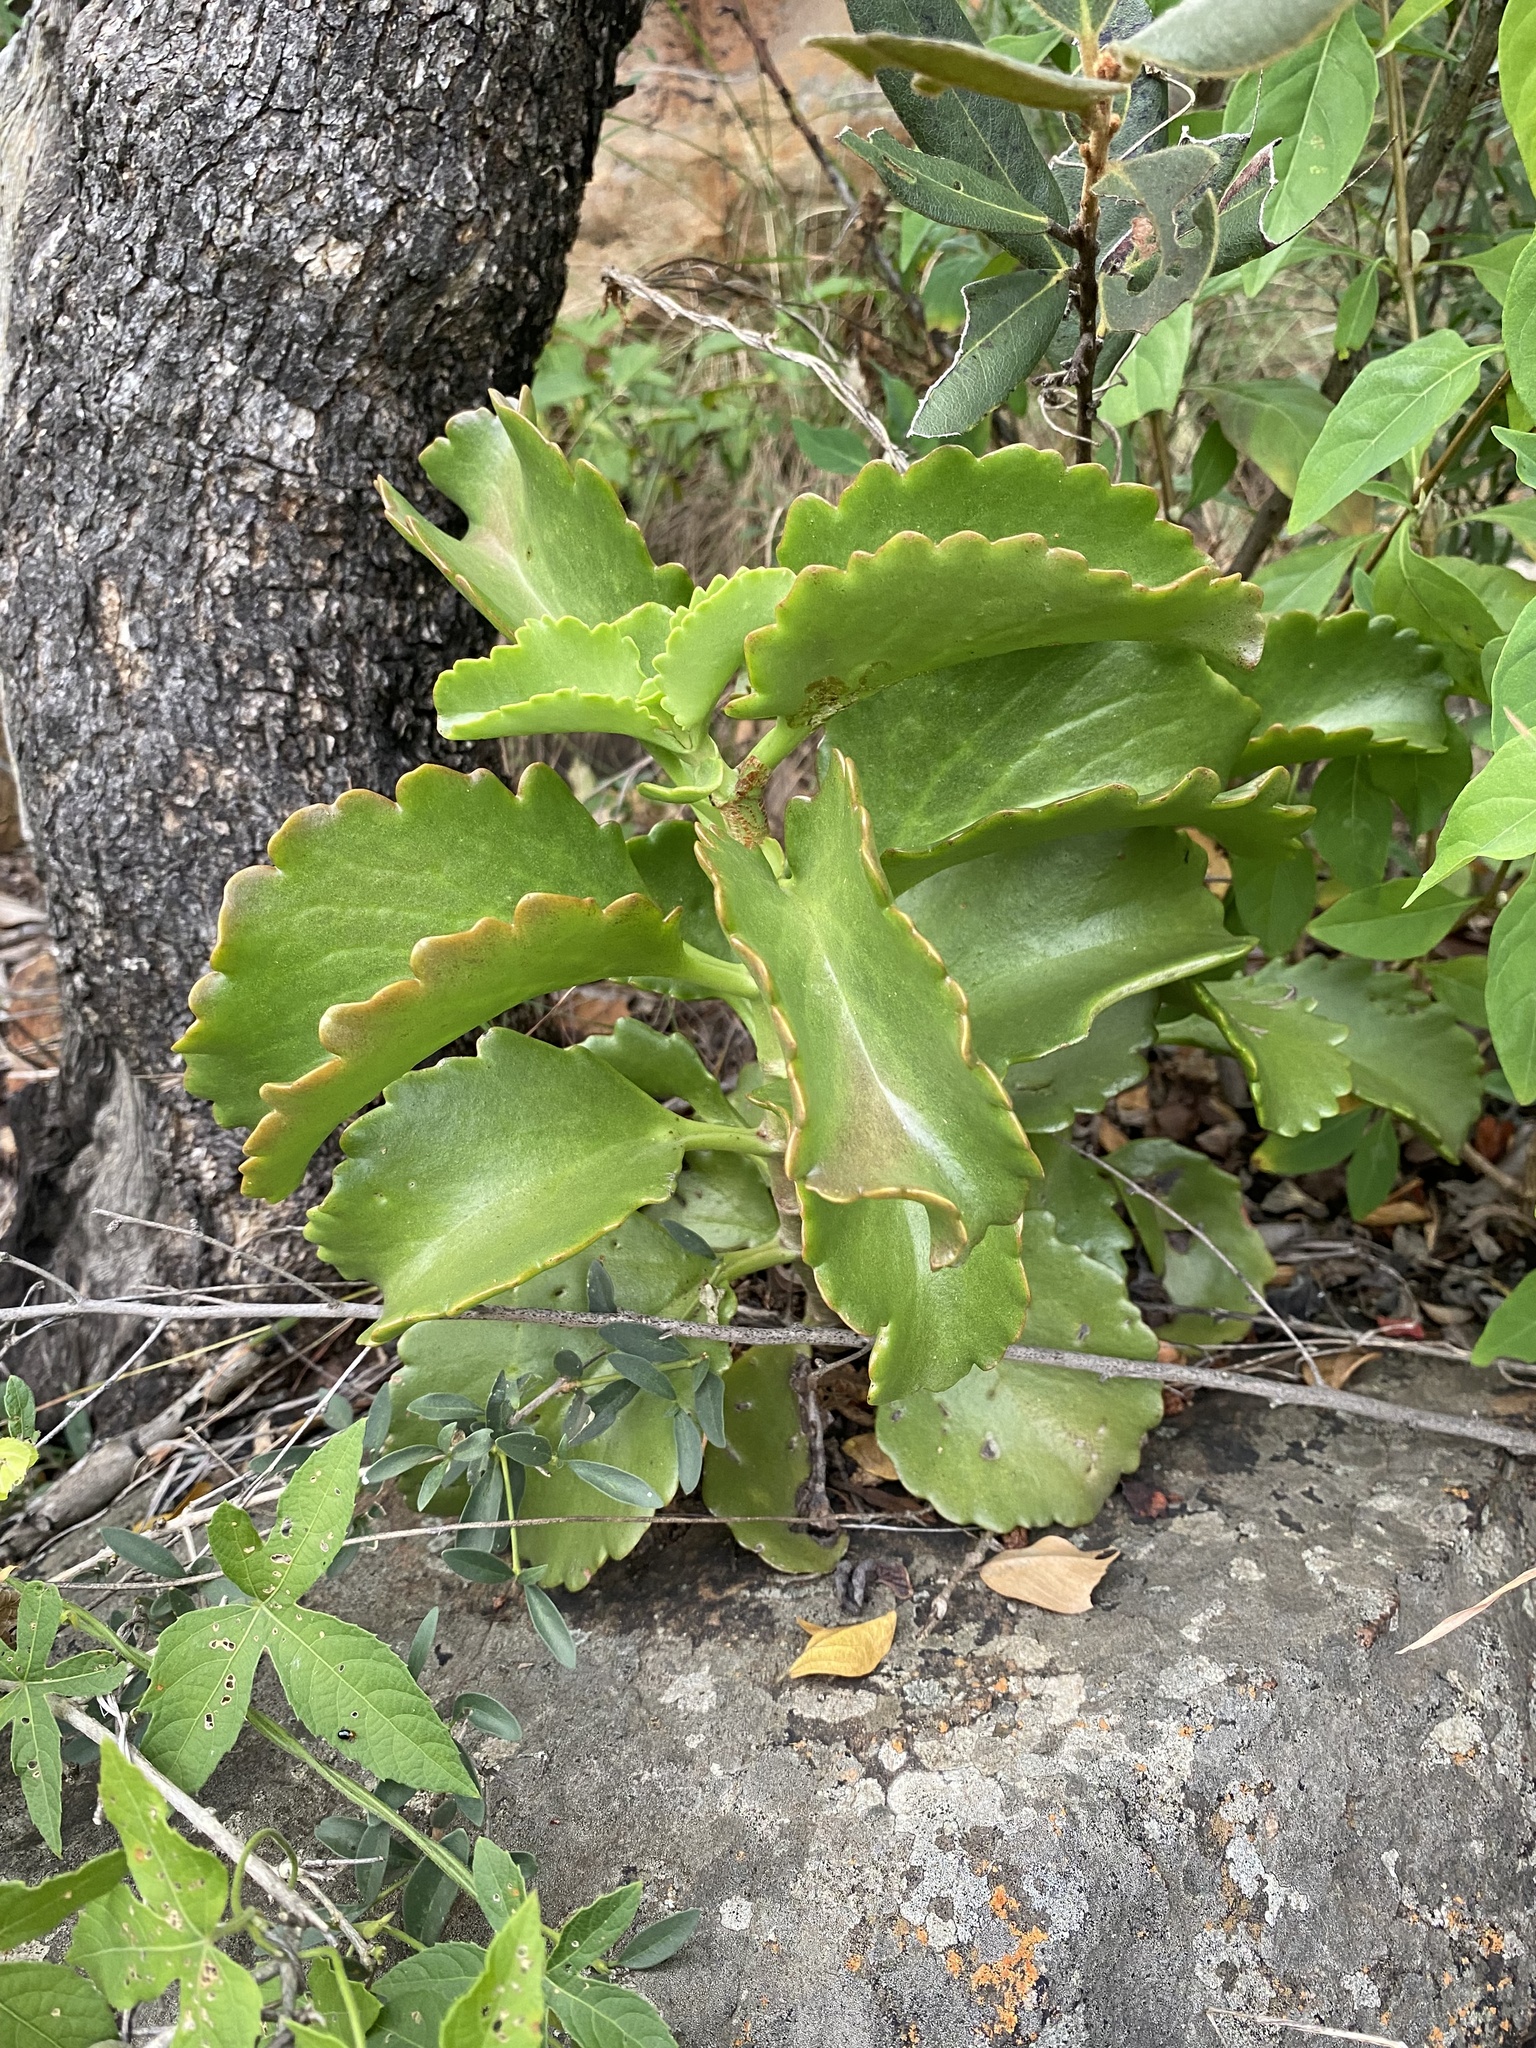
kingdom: Plantae
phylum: Tracheophyta
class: Magnoliopsida
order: Saxifragales
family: Crassulaceae
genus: Kalanchoe
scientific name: Kalanchoe sexangularis
